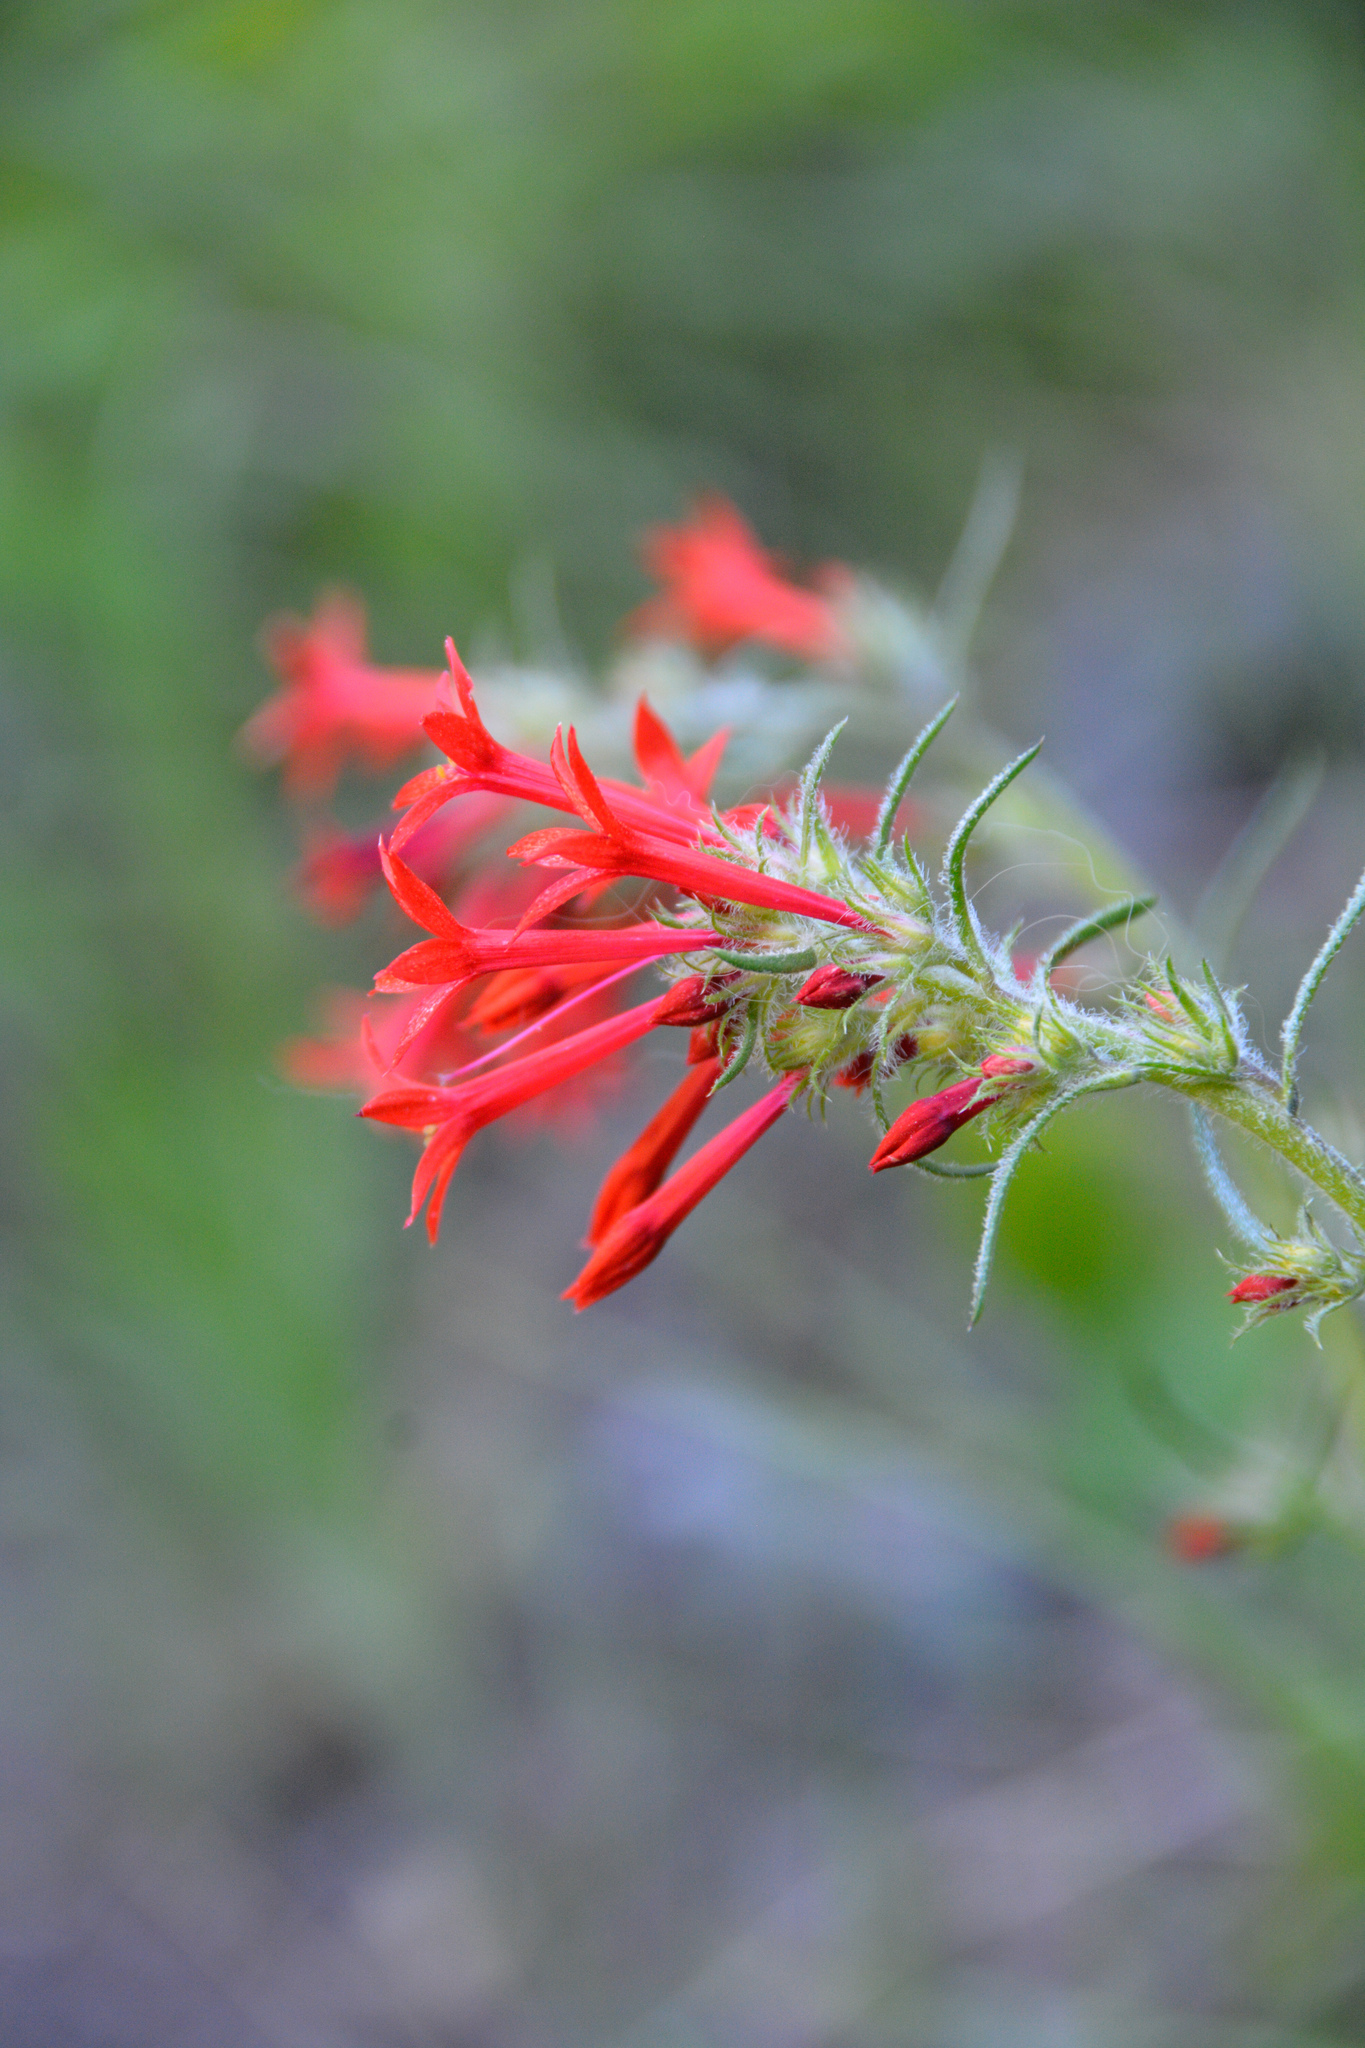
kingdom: Plantae
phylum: Tracheophyta
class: Magnoliopsida
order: Ericales
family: Polemoniaceae
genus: Ipomopsis
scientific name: Ipomopsis aggregata
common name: Scarlet gilia
